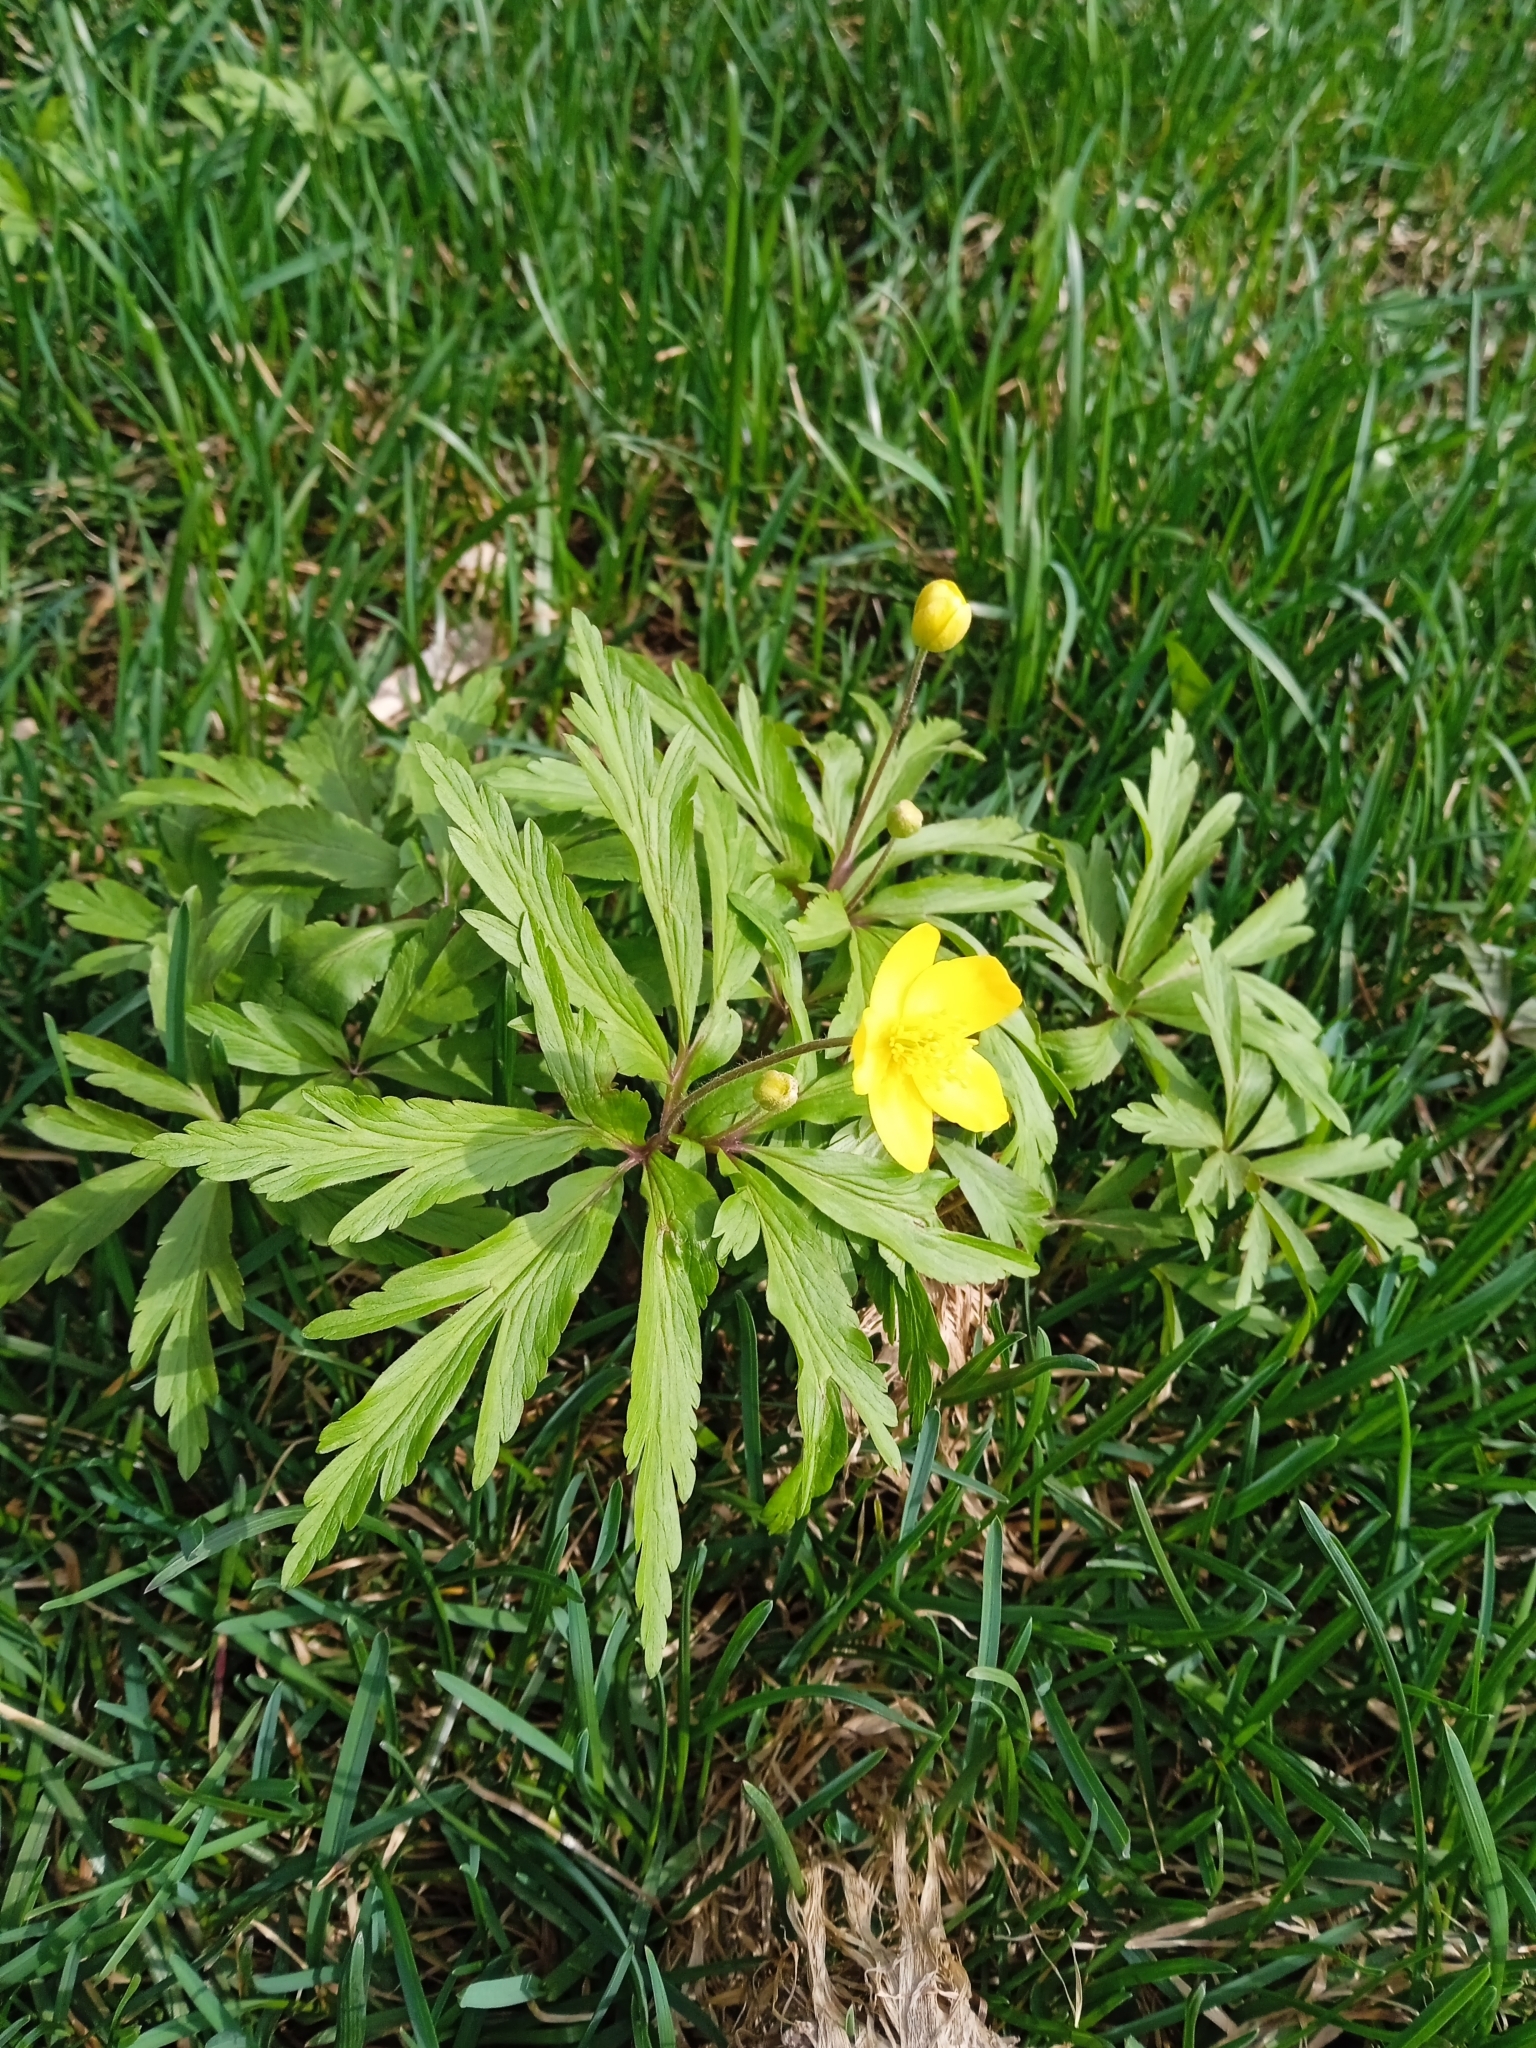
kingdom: Plantae
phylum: Tracheophyta
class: Magnoliopsida
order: Ranunculales
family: Ranunculaceae
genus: Anemone
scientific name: Anemone ranunculoides
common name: Yellow anemone
